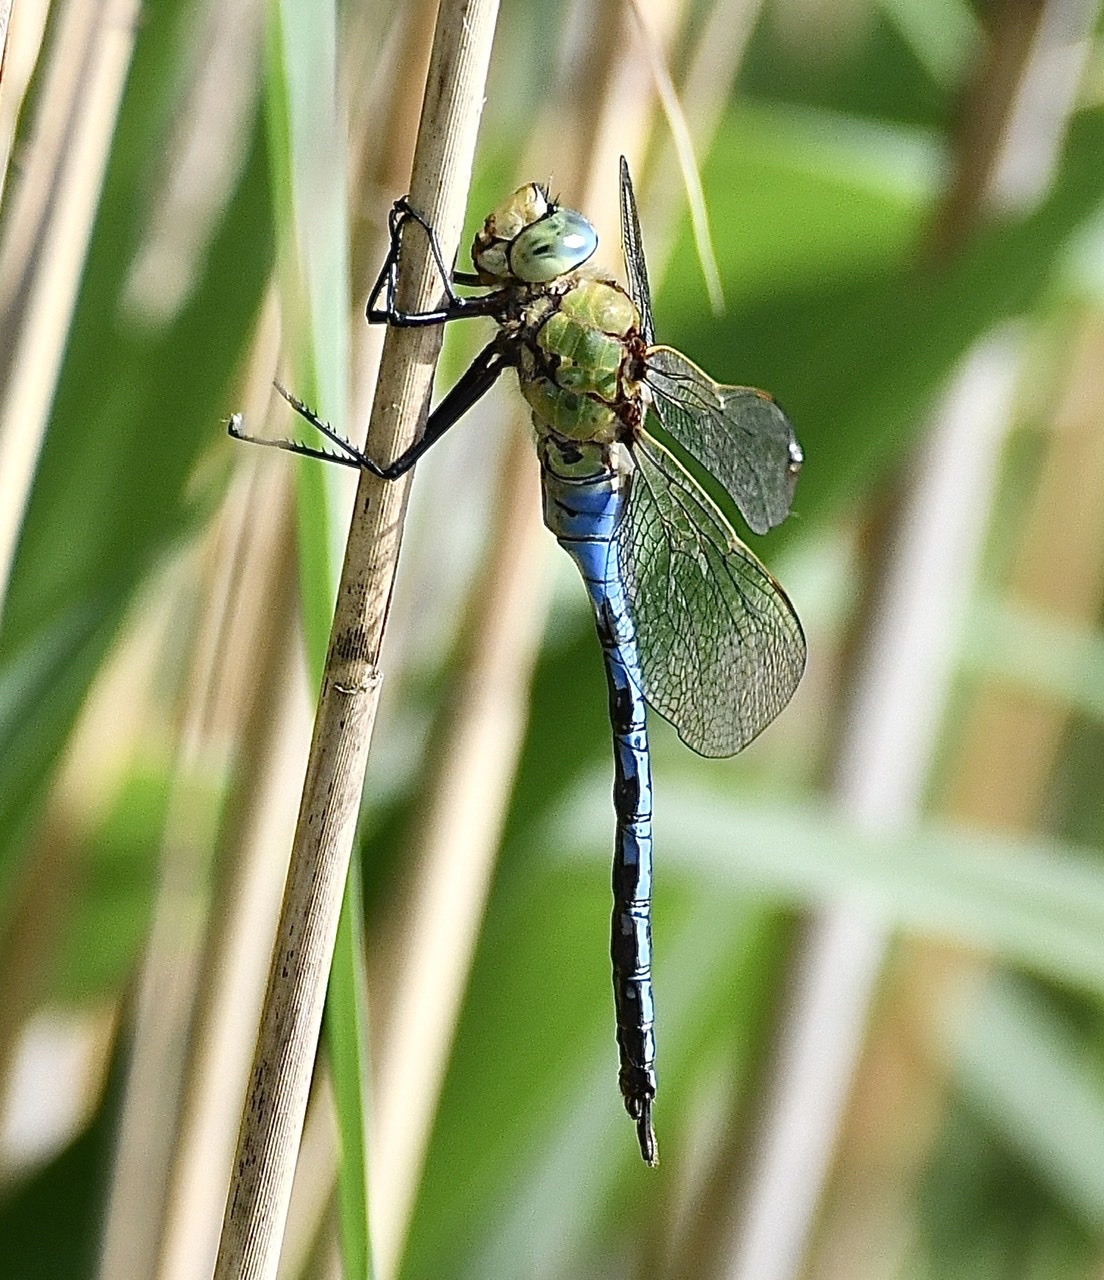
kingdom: Animalia
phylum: Arthropoda
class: Insecta
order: Odonata
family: Aeshnidae
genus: Anax
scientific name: Anax imperator
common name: Emperor dragonfly
